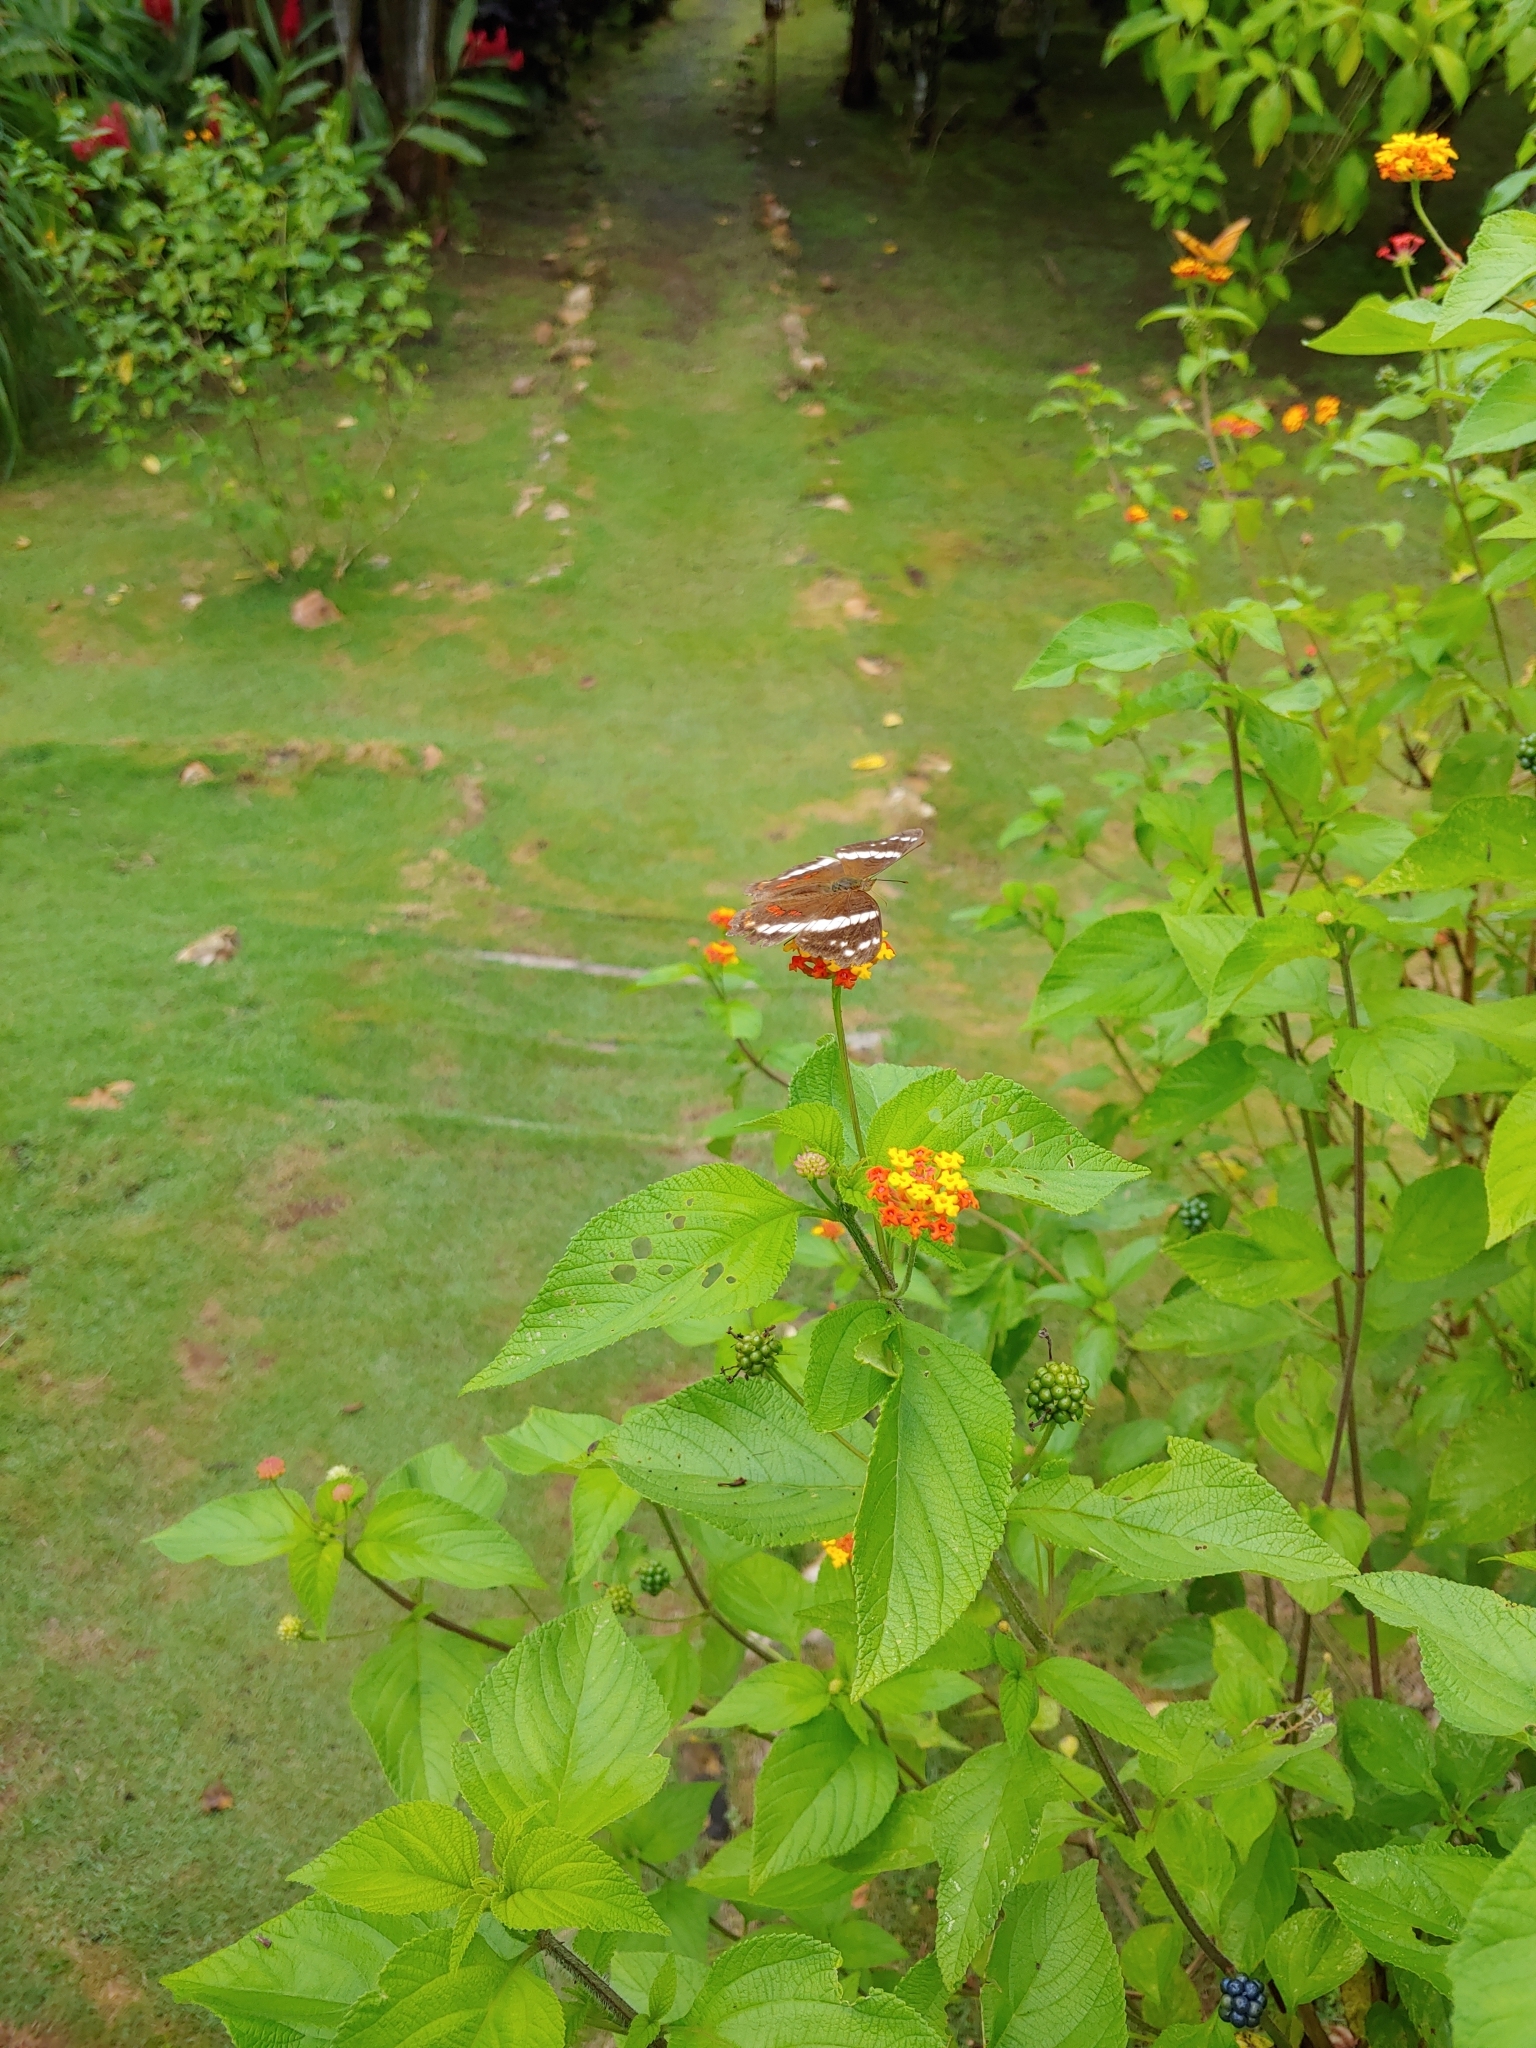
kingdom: Animalia
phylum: Arthropoda
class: Insecta
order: Lepidoptera
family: Nymphalidae
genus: Anartia
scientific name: Anartia fatima
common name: Banded peacock
